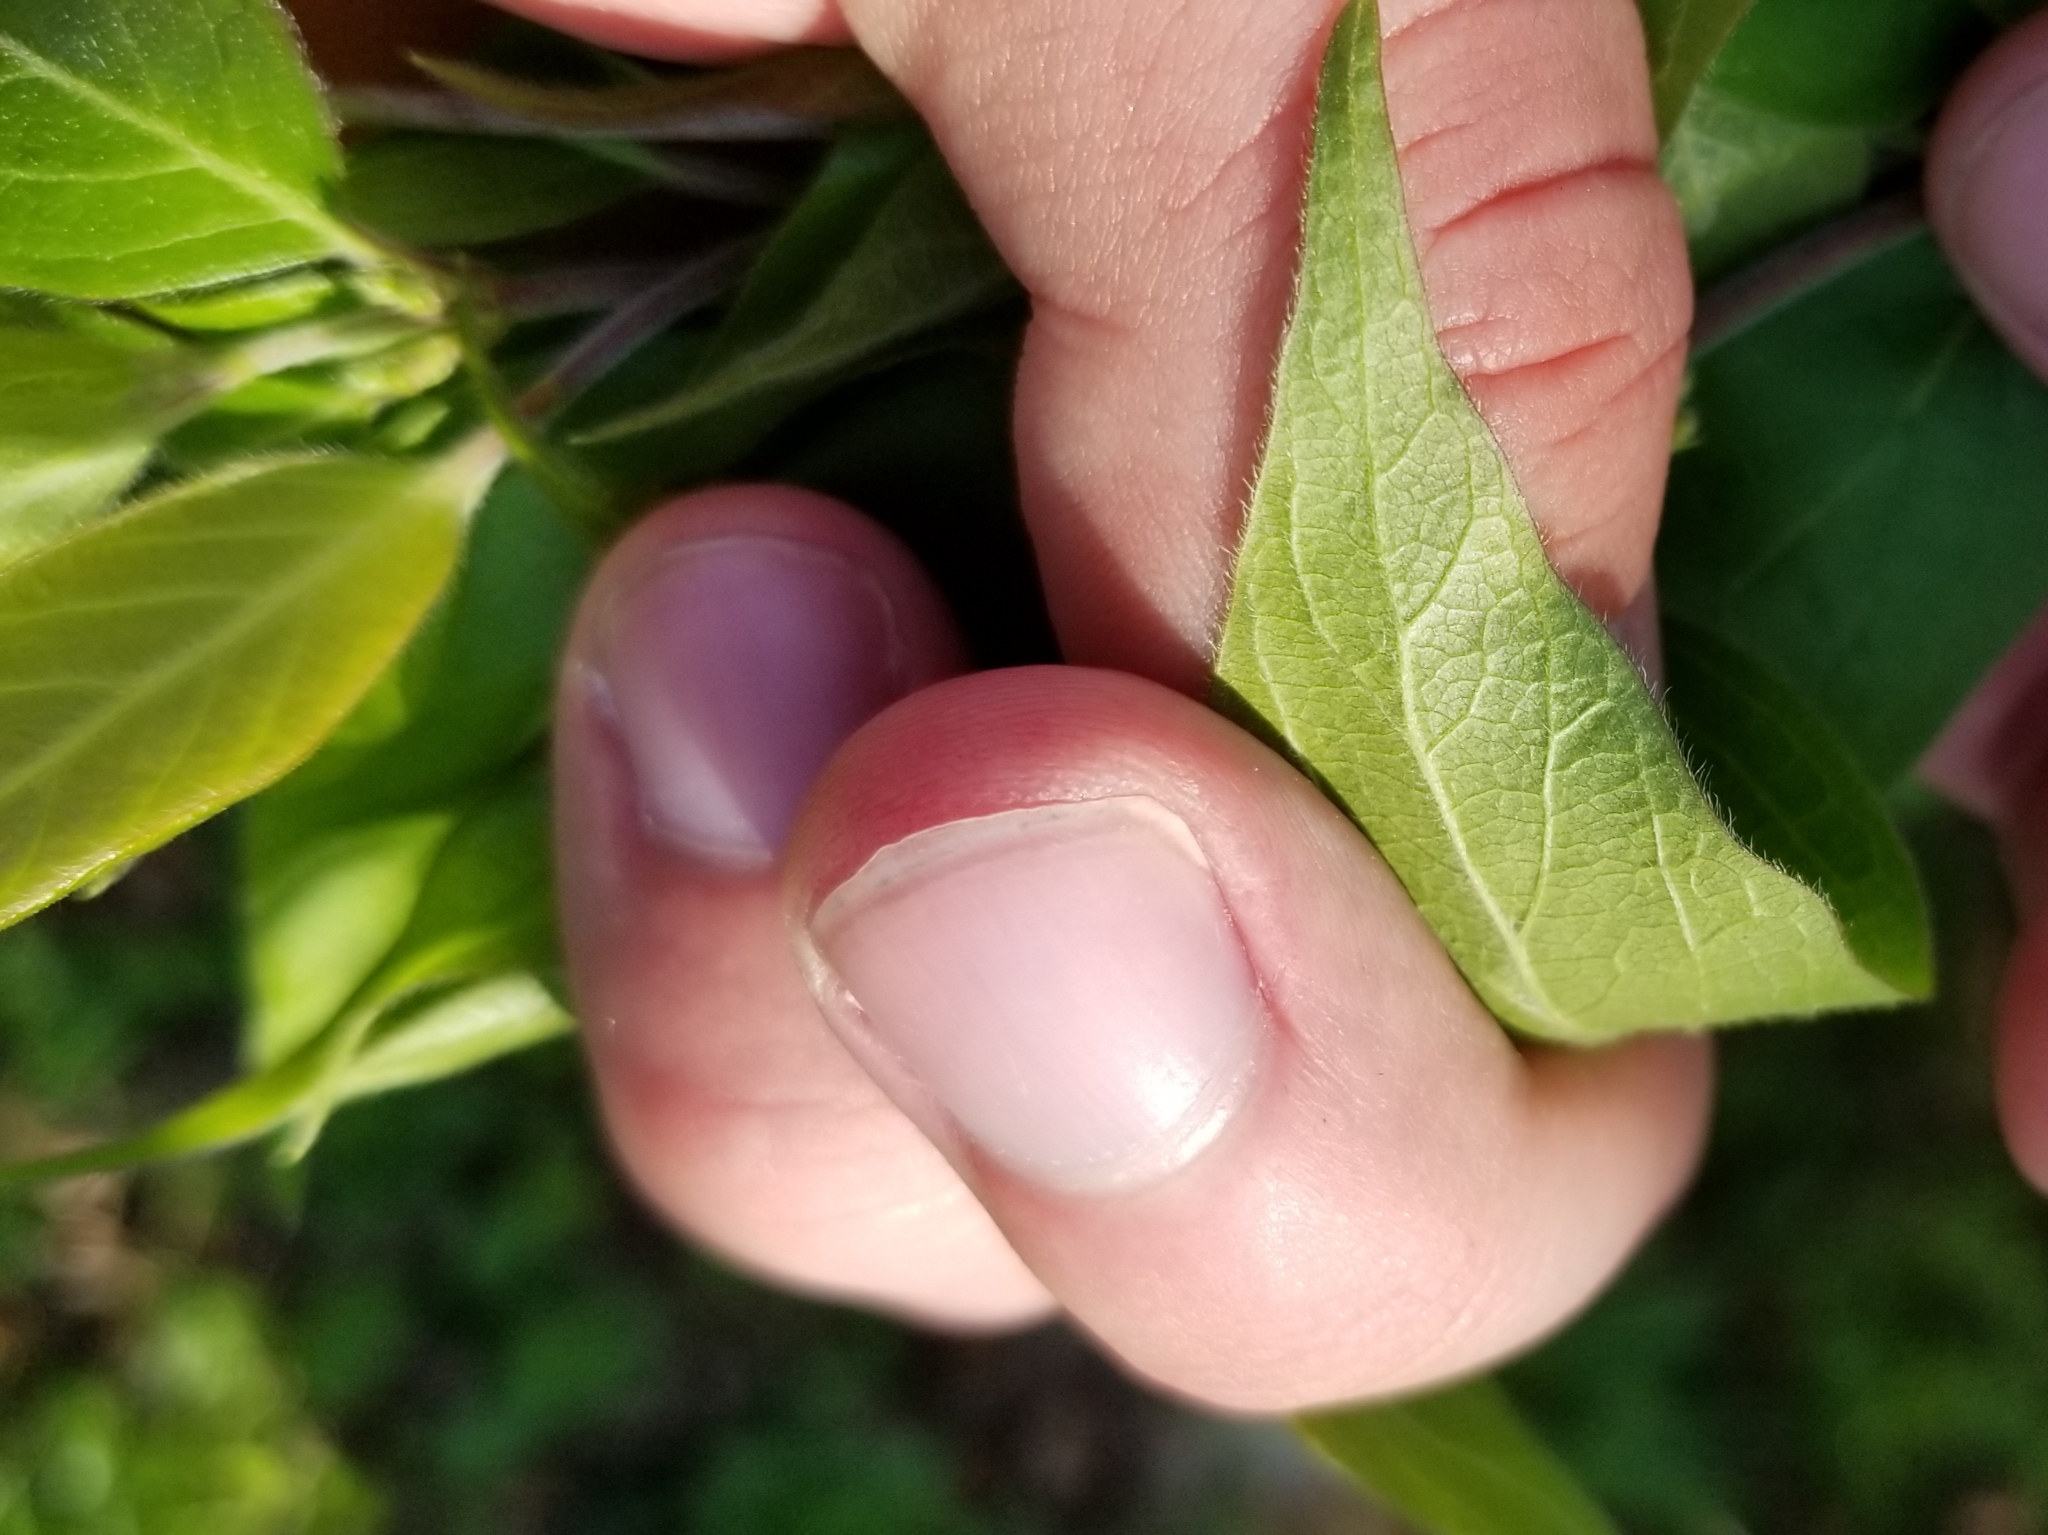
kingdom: Plantae
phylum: Tracheophyta
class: Magnoliopsida
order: Dipsacales
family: Caprifoliaceae
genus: Lonicera
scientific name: Lonicera maackii
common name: Amur honeysuckle
